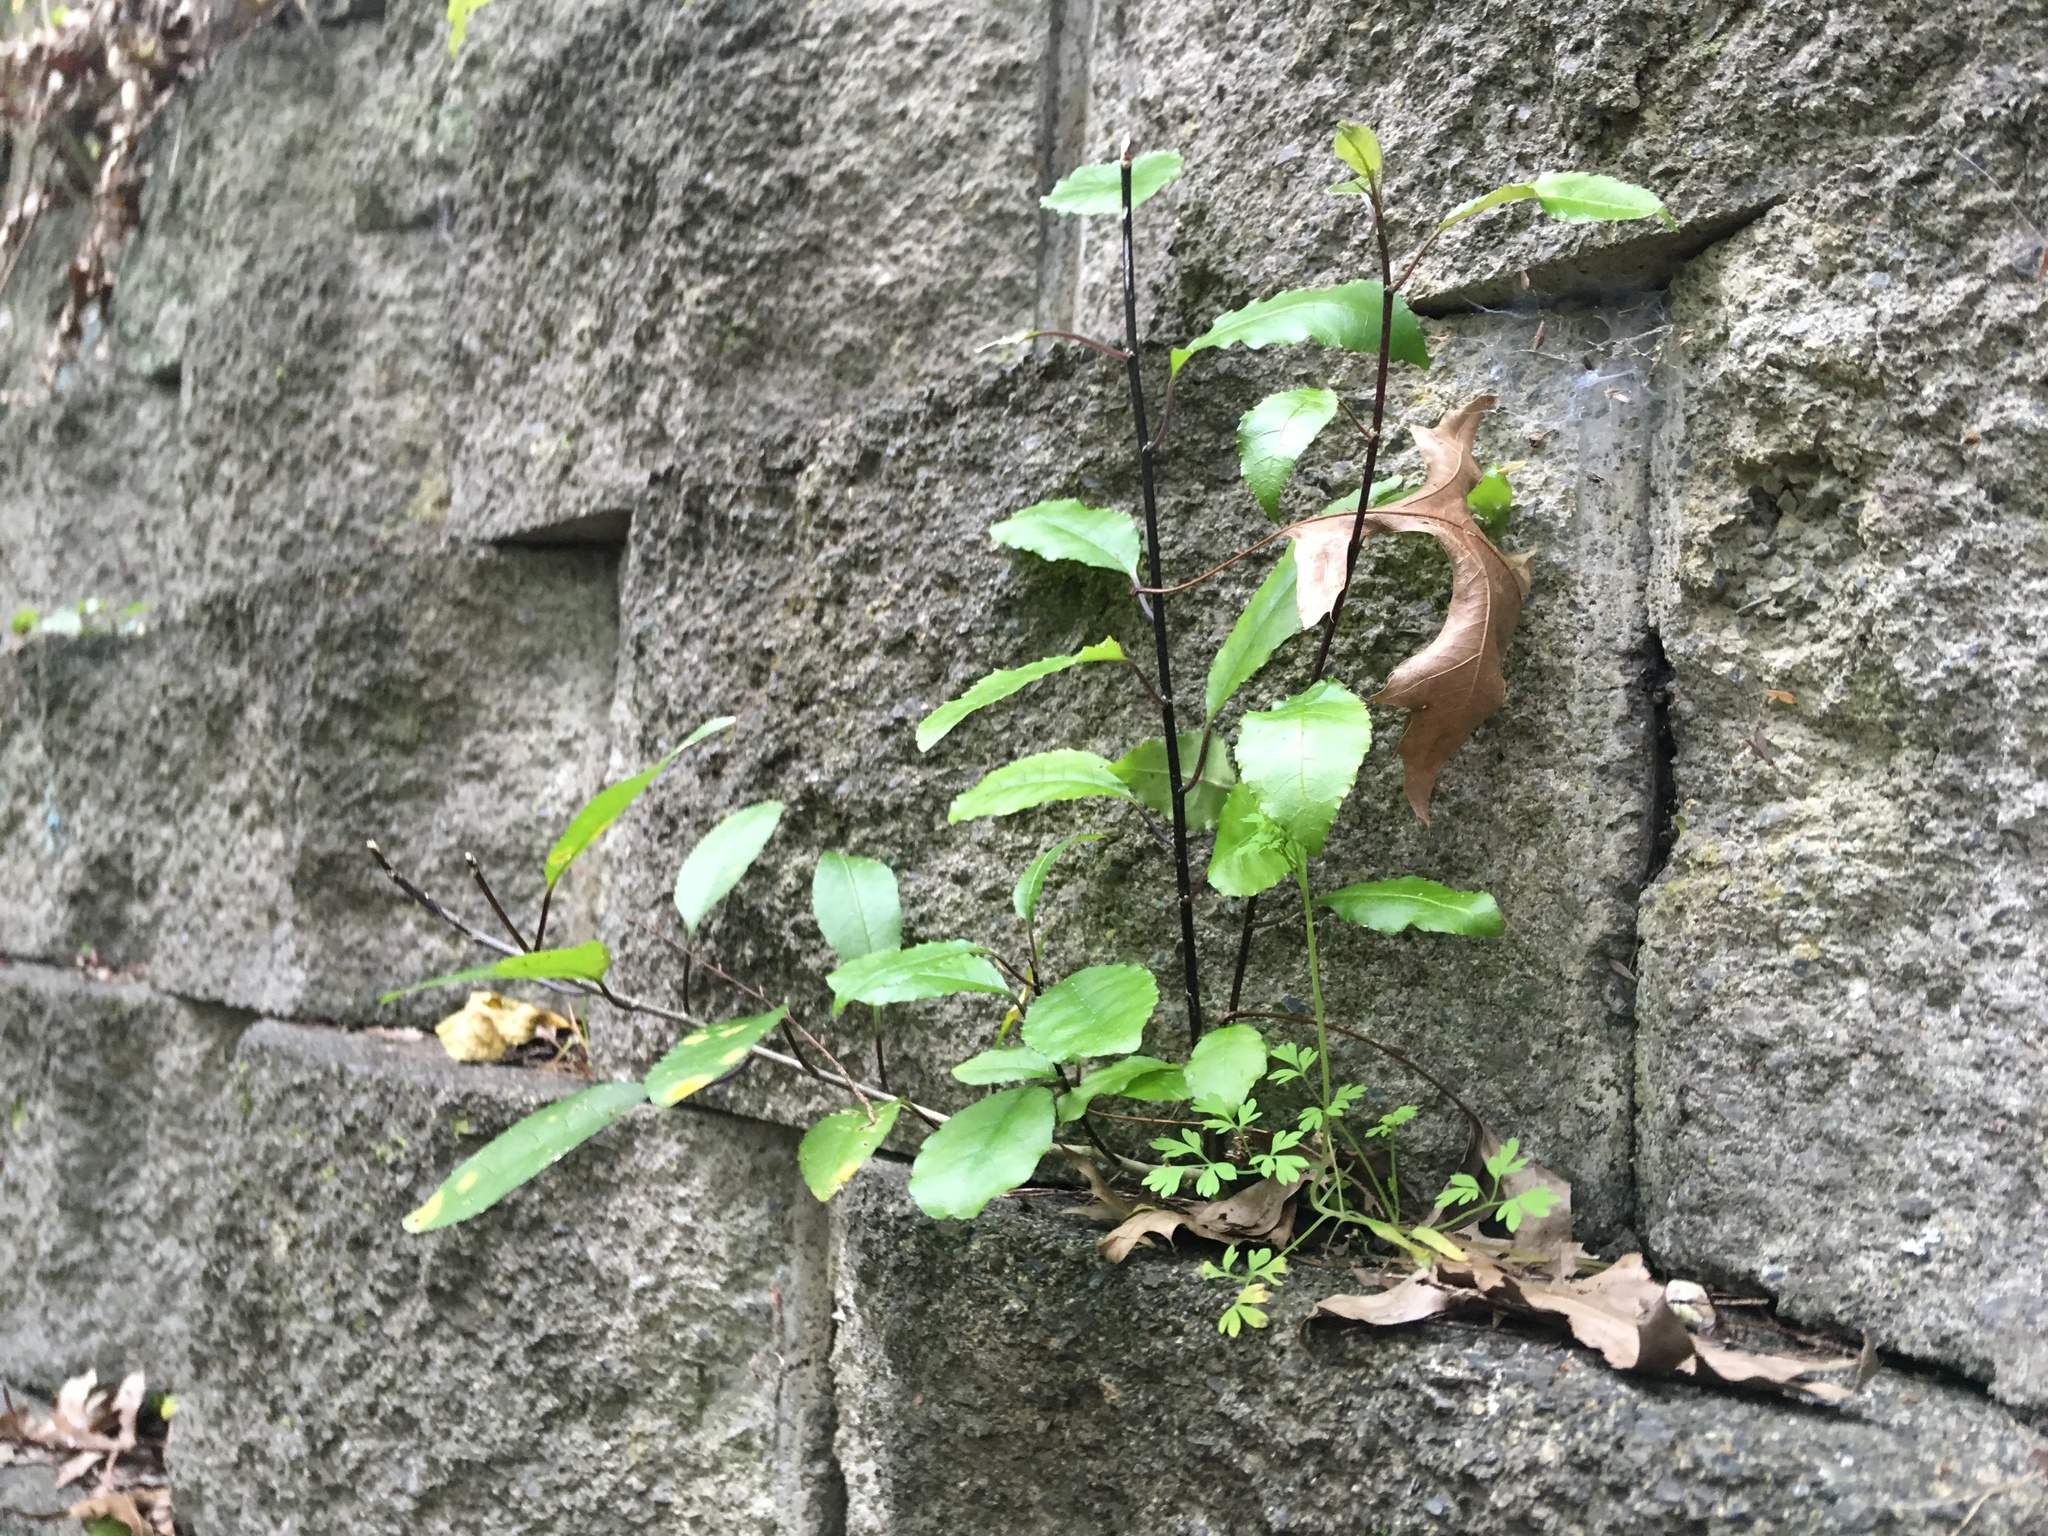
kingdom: Plantae
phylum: Tracheophyta
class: Magnoliopsida
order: Malpighiales
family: Violaceae
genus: Melicytus
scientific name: Melicytus ramiflorus
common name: Mahoe
